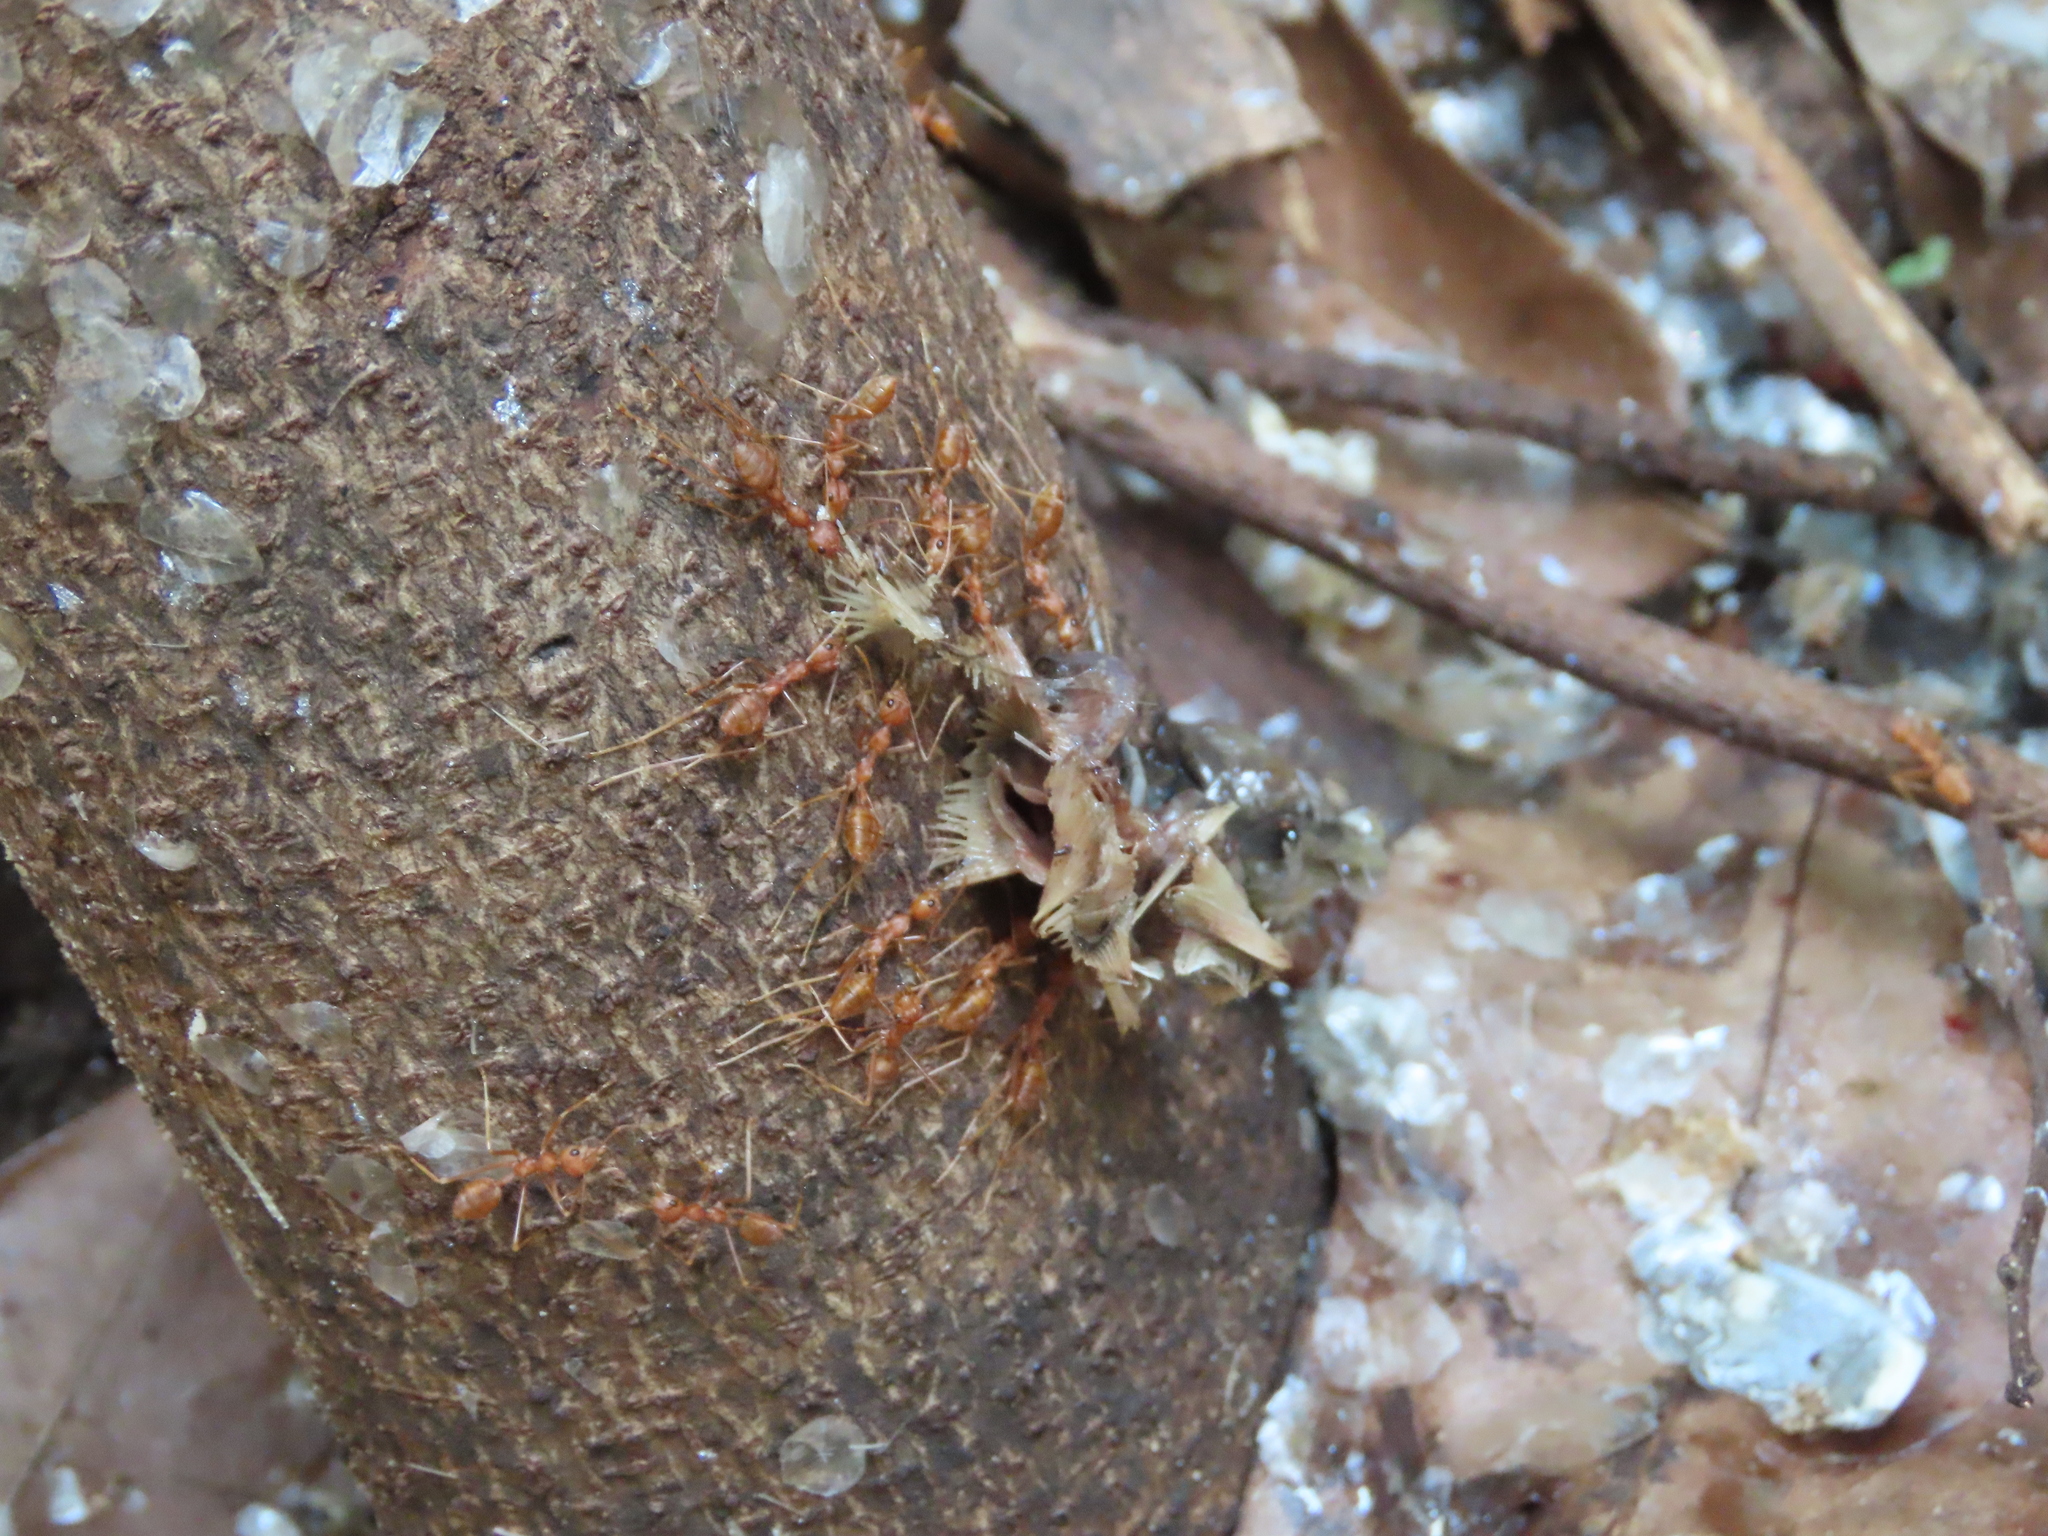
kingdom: Animalia
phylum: Arthropoda
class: Insecta
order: Hymenoptera
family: Formicidae
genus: Oecophylla
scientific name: Oecophylla smaragdina
